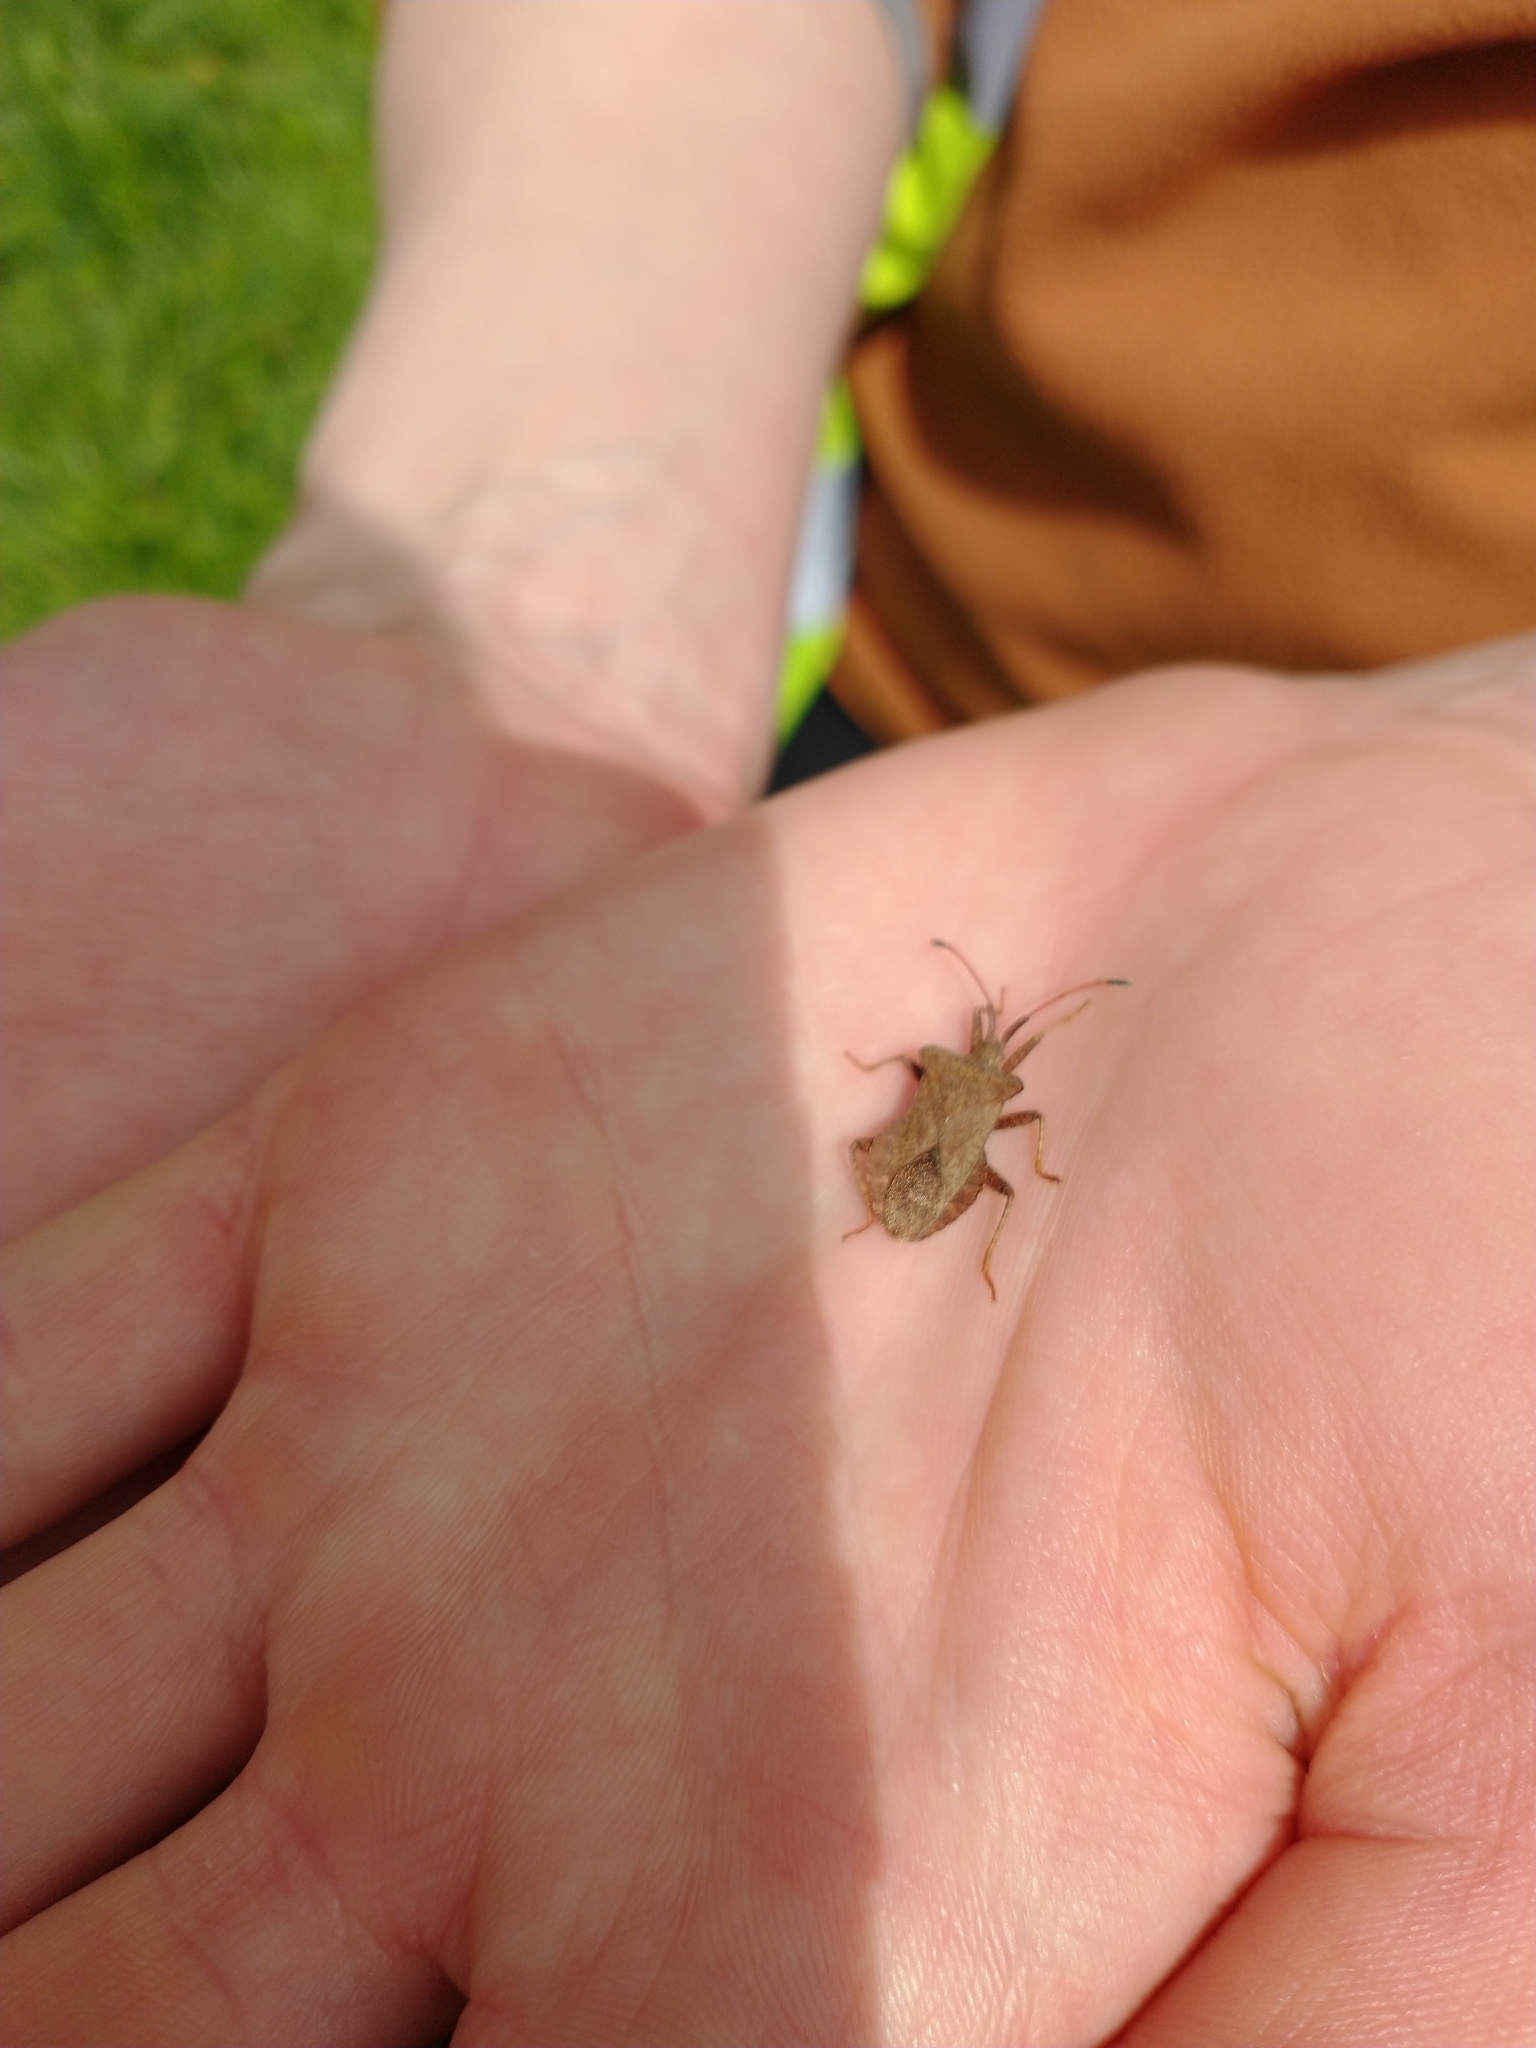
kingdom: Animalia
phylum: Arthropoda
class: Insecta
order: Hemiptera
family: Coreidae
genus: Coreus
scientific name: Coreus marginatus
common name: Dock bug
